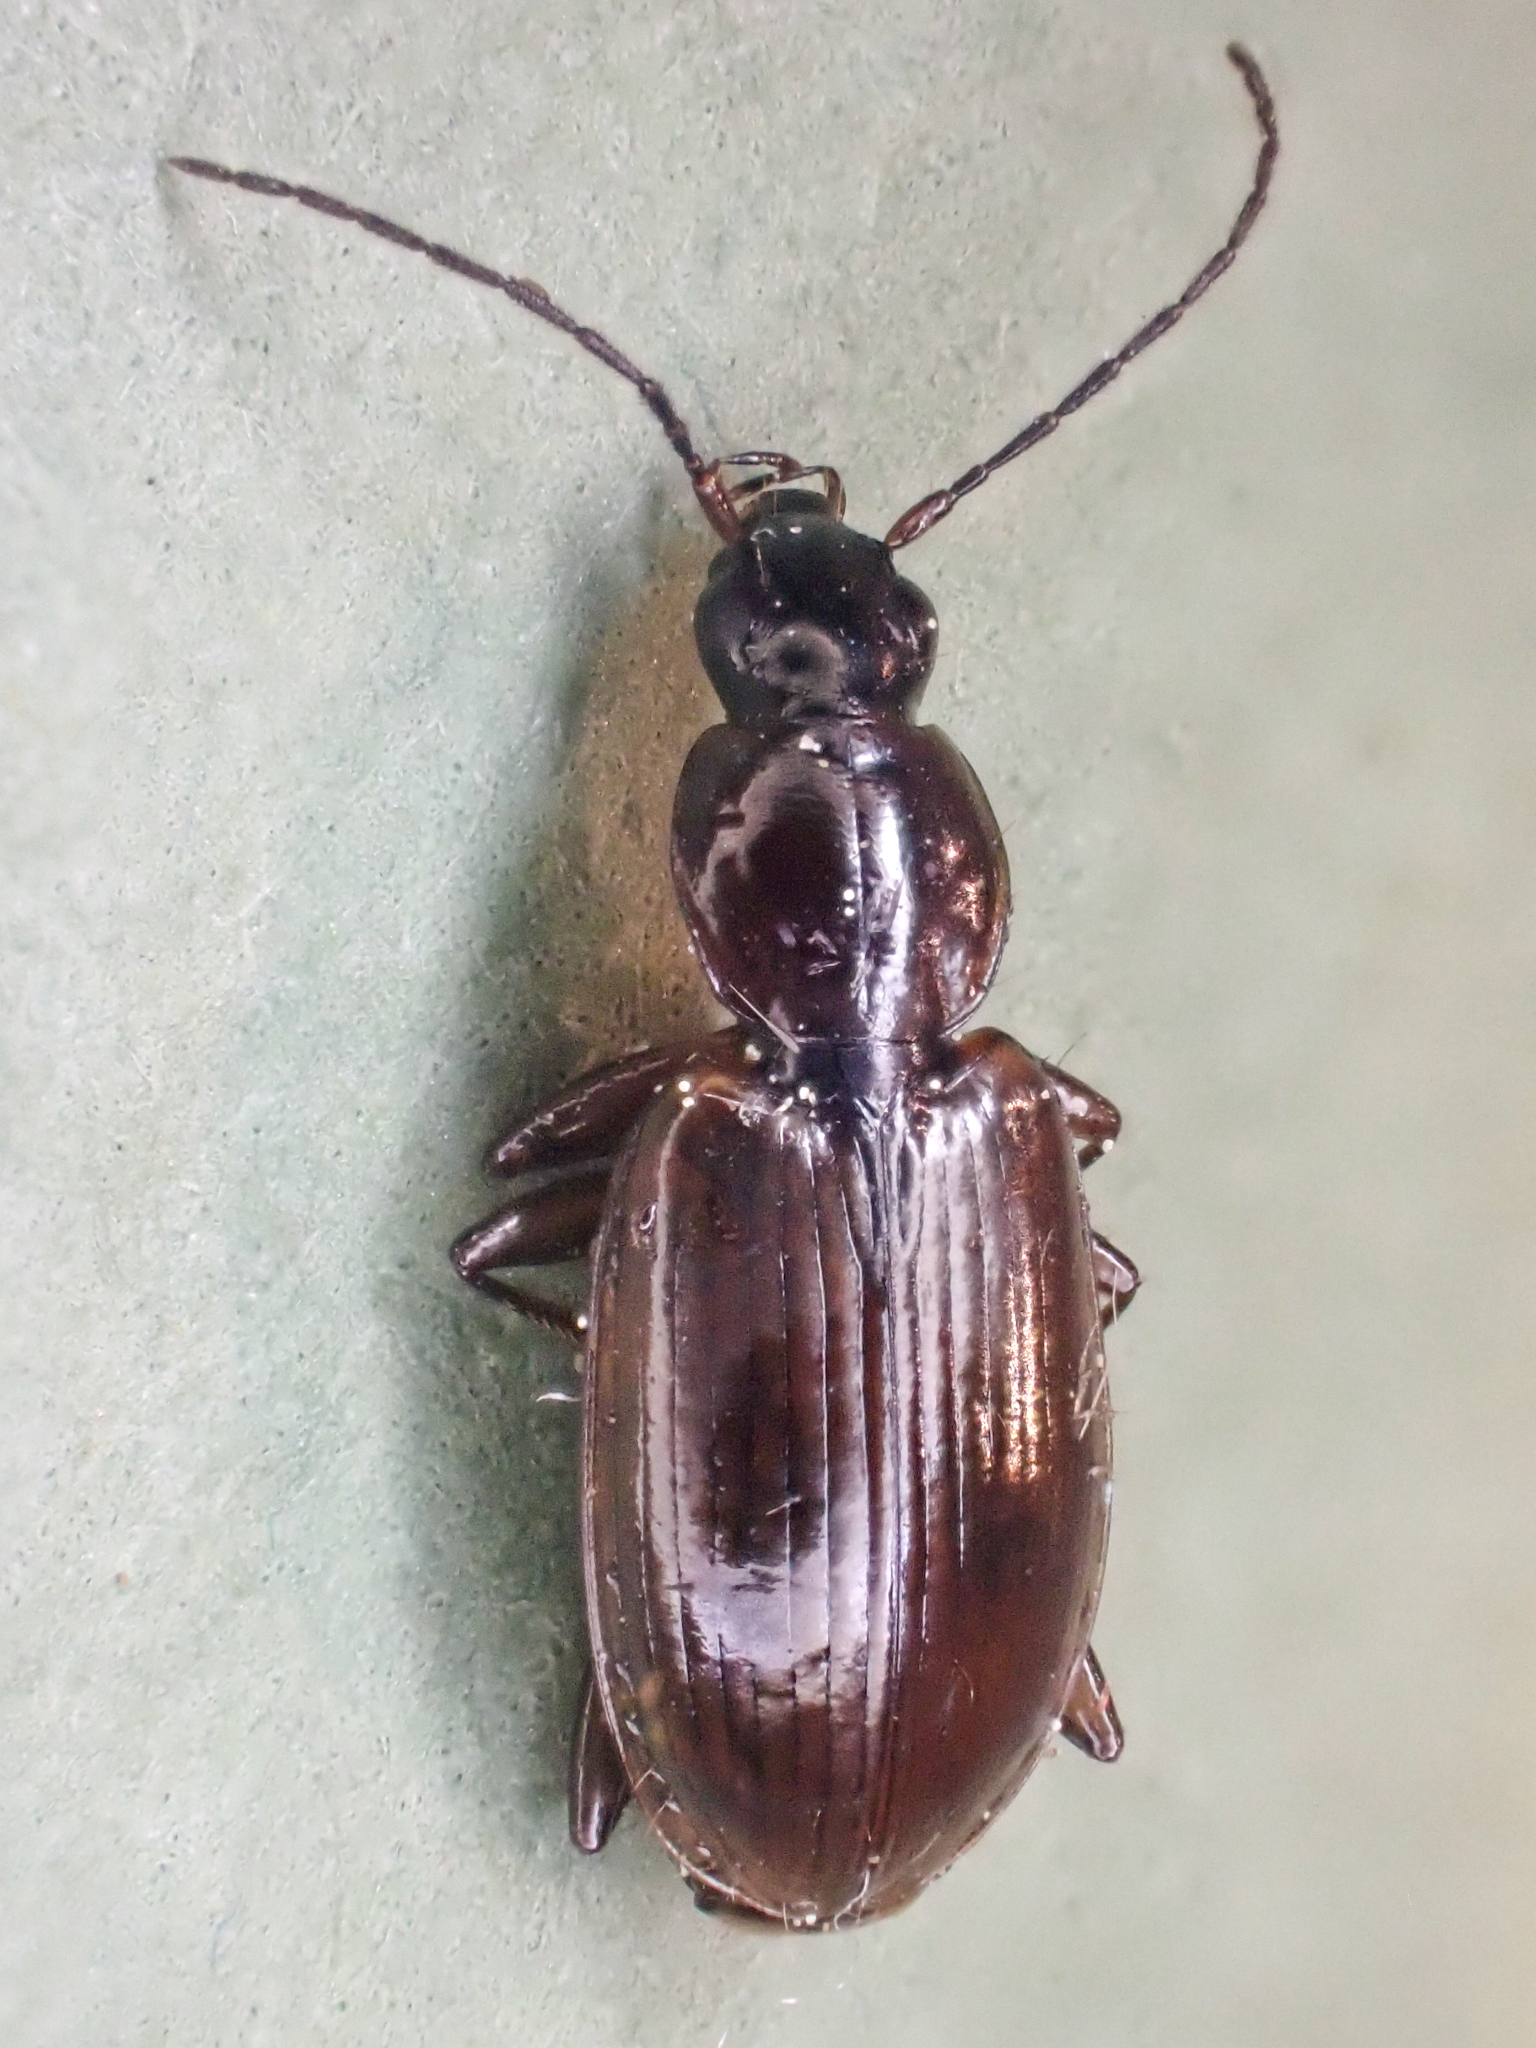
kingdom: Animalia
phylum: Arthropoda
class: Insecta
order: Coleoptera
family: Carabidae
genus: Agonum
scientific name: Agonum lutulentum
